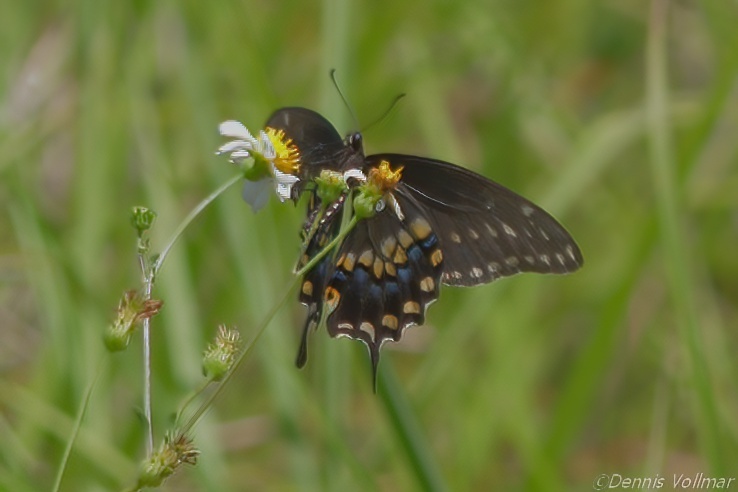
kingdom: Animalia
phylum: Arthropoda
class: Insecta
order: Lepidoptera
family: Papilionidae
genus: Papilio
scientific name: Papilio polyxenes
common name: Black swallowtail
